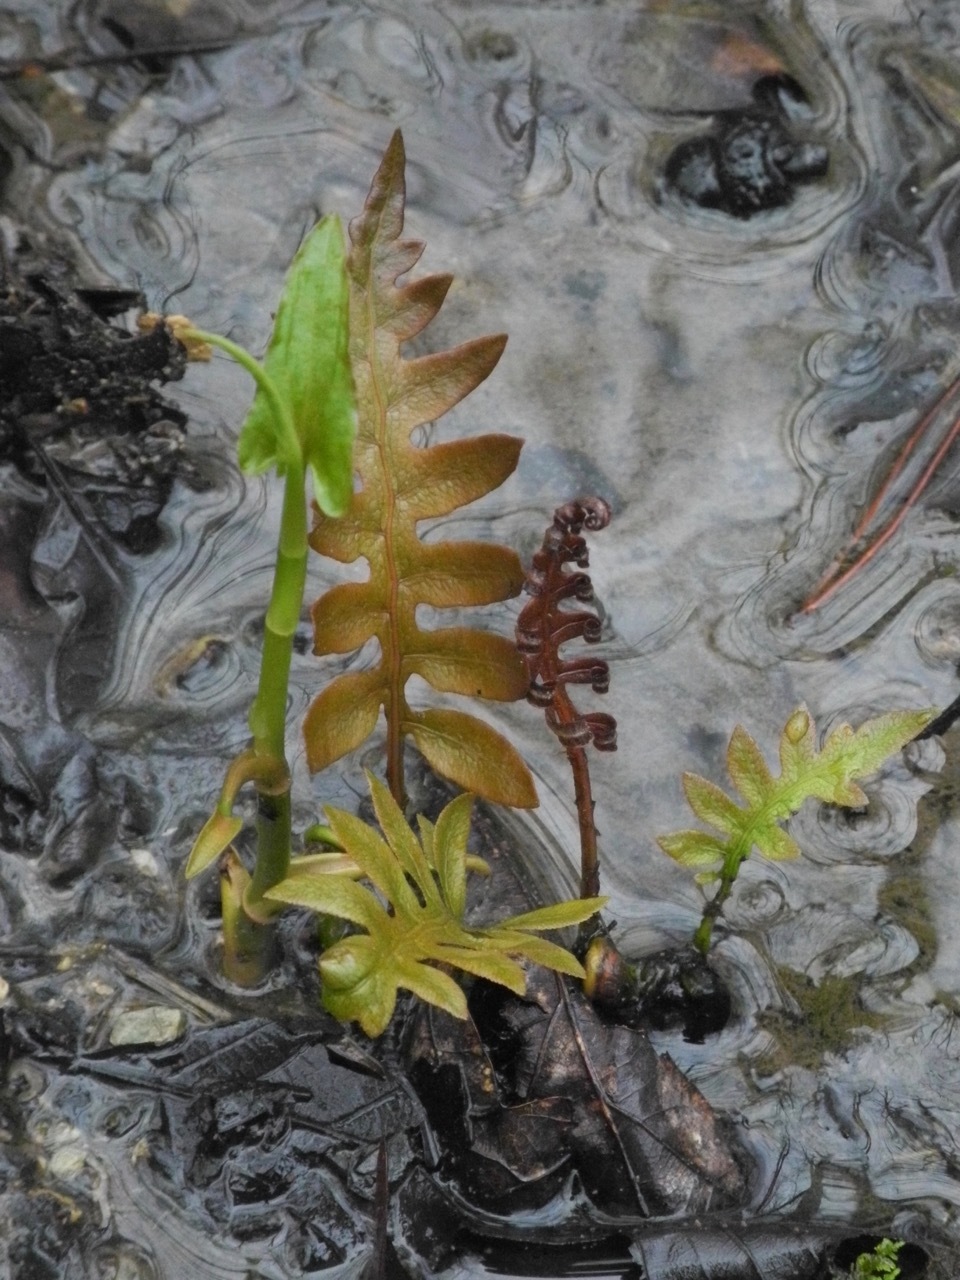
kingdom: Plantae
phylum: Tracheophyta
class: Polypodiopsida
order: Polypodiales
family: Blechnaceae
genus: Lorinseria
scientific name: Lorinseria areolata
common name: Dwarf chain fern
